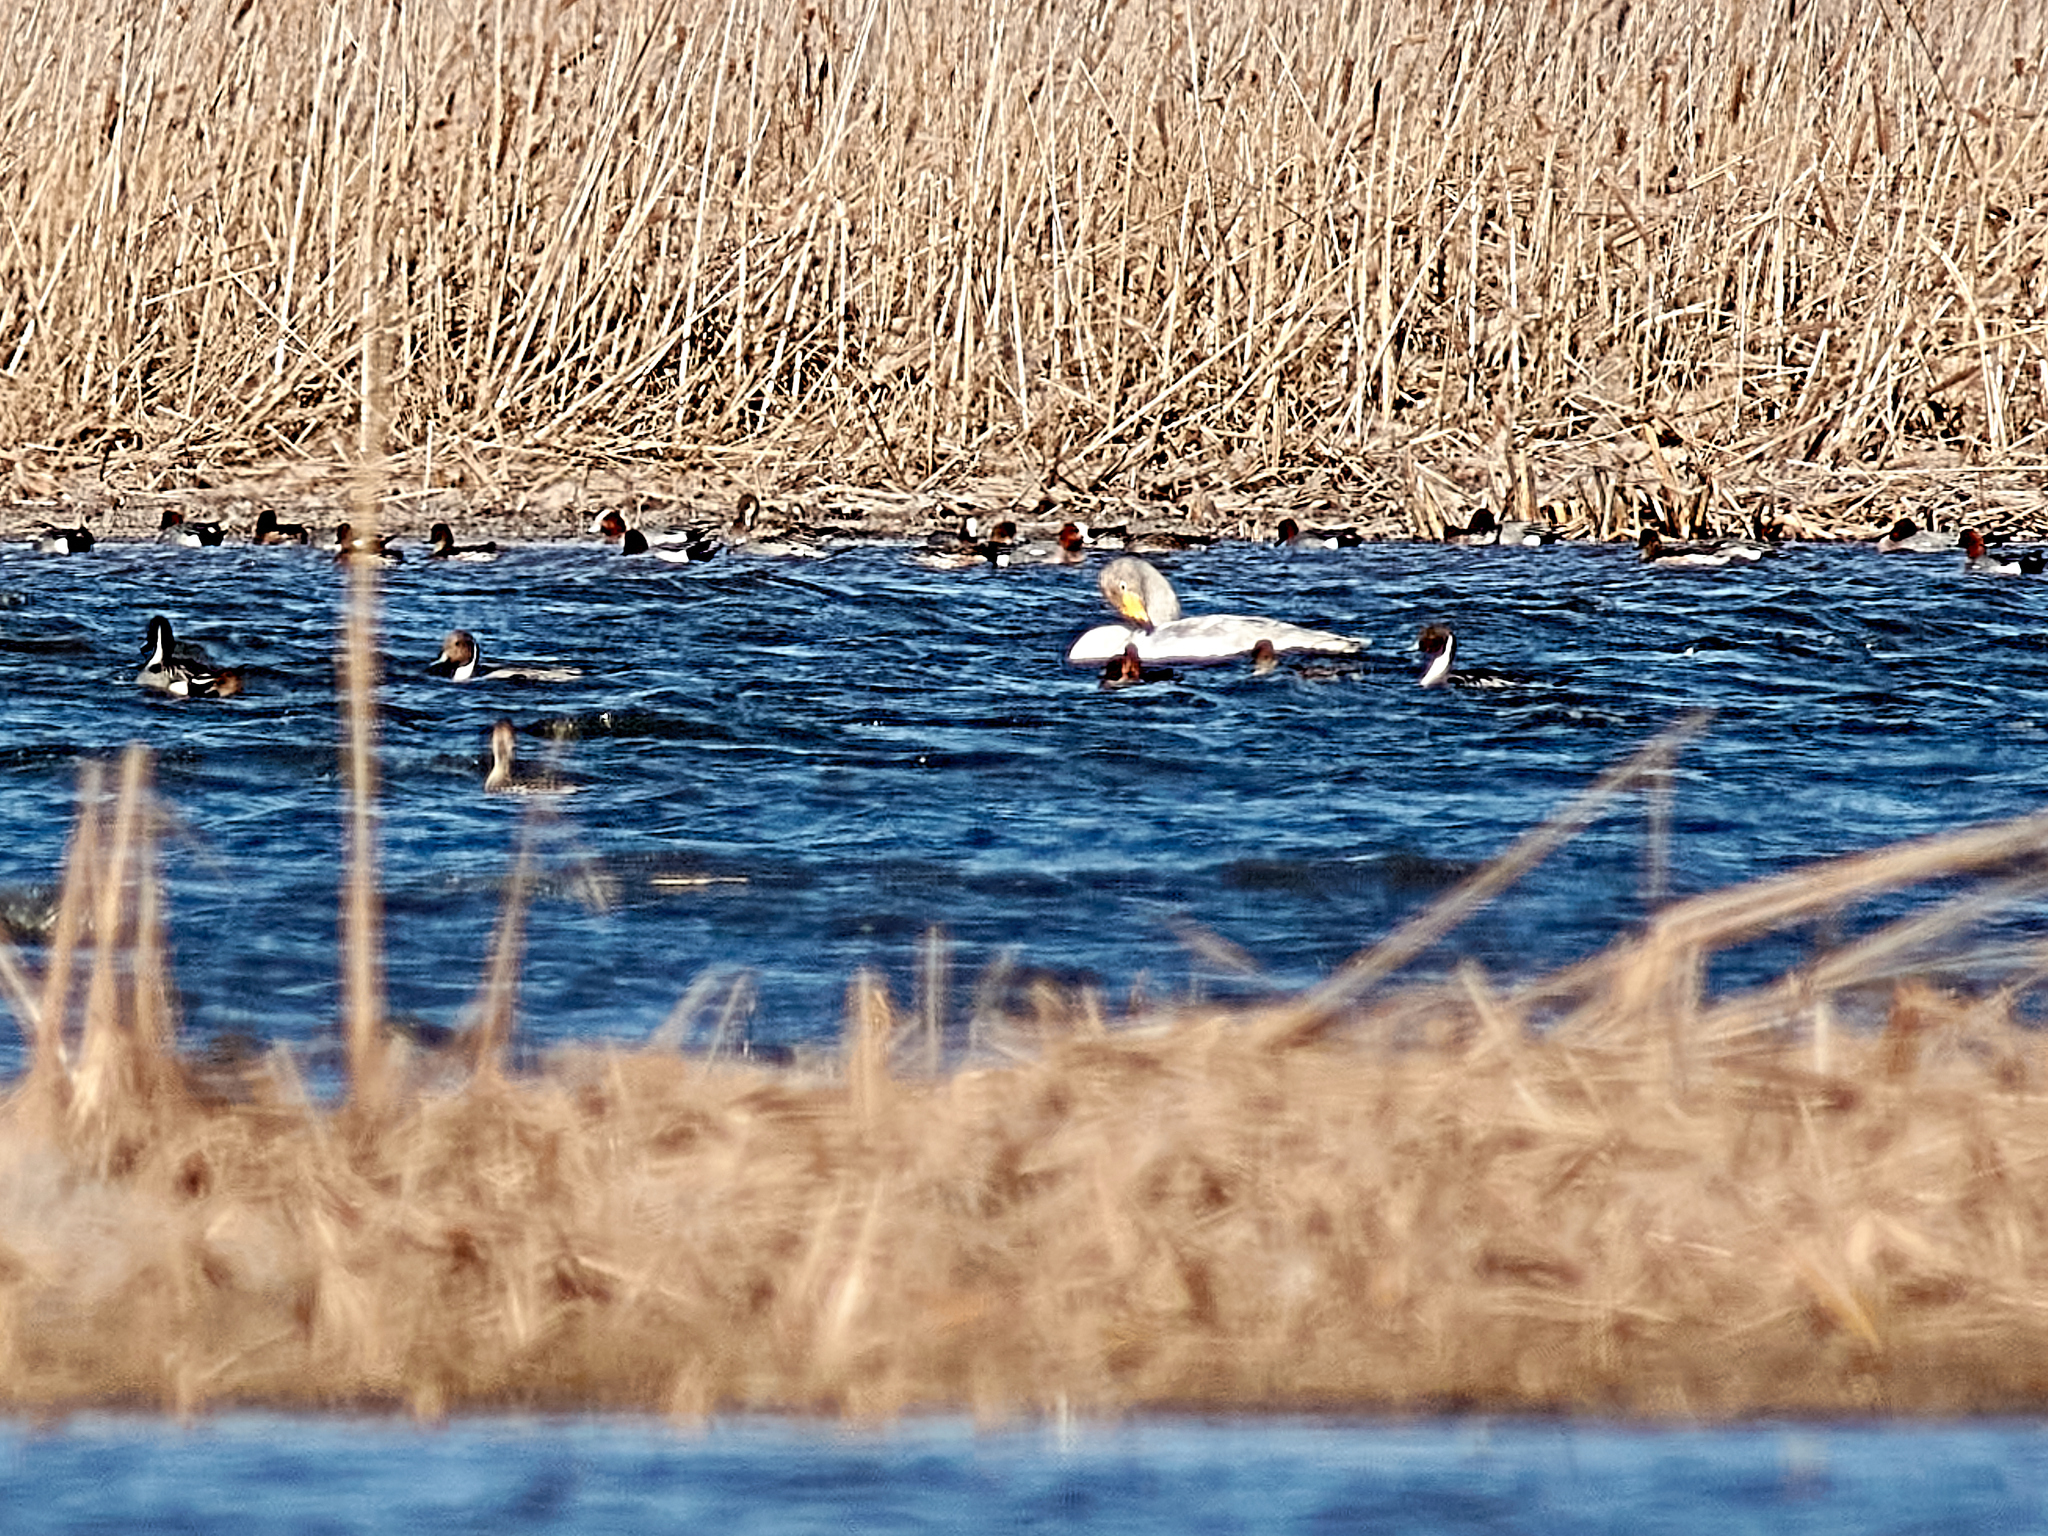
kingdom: Animalia
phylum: Chordata
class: Aves
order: Anseriformes
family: Anatidae
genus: Cygnus
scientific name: Cygnus cygnus
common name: Whooper swan
